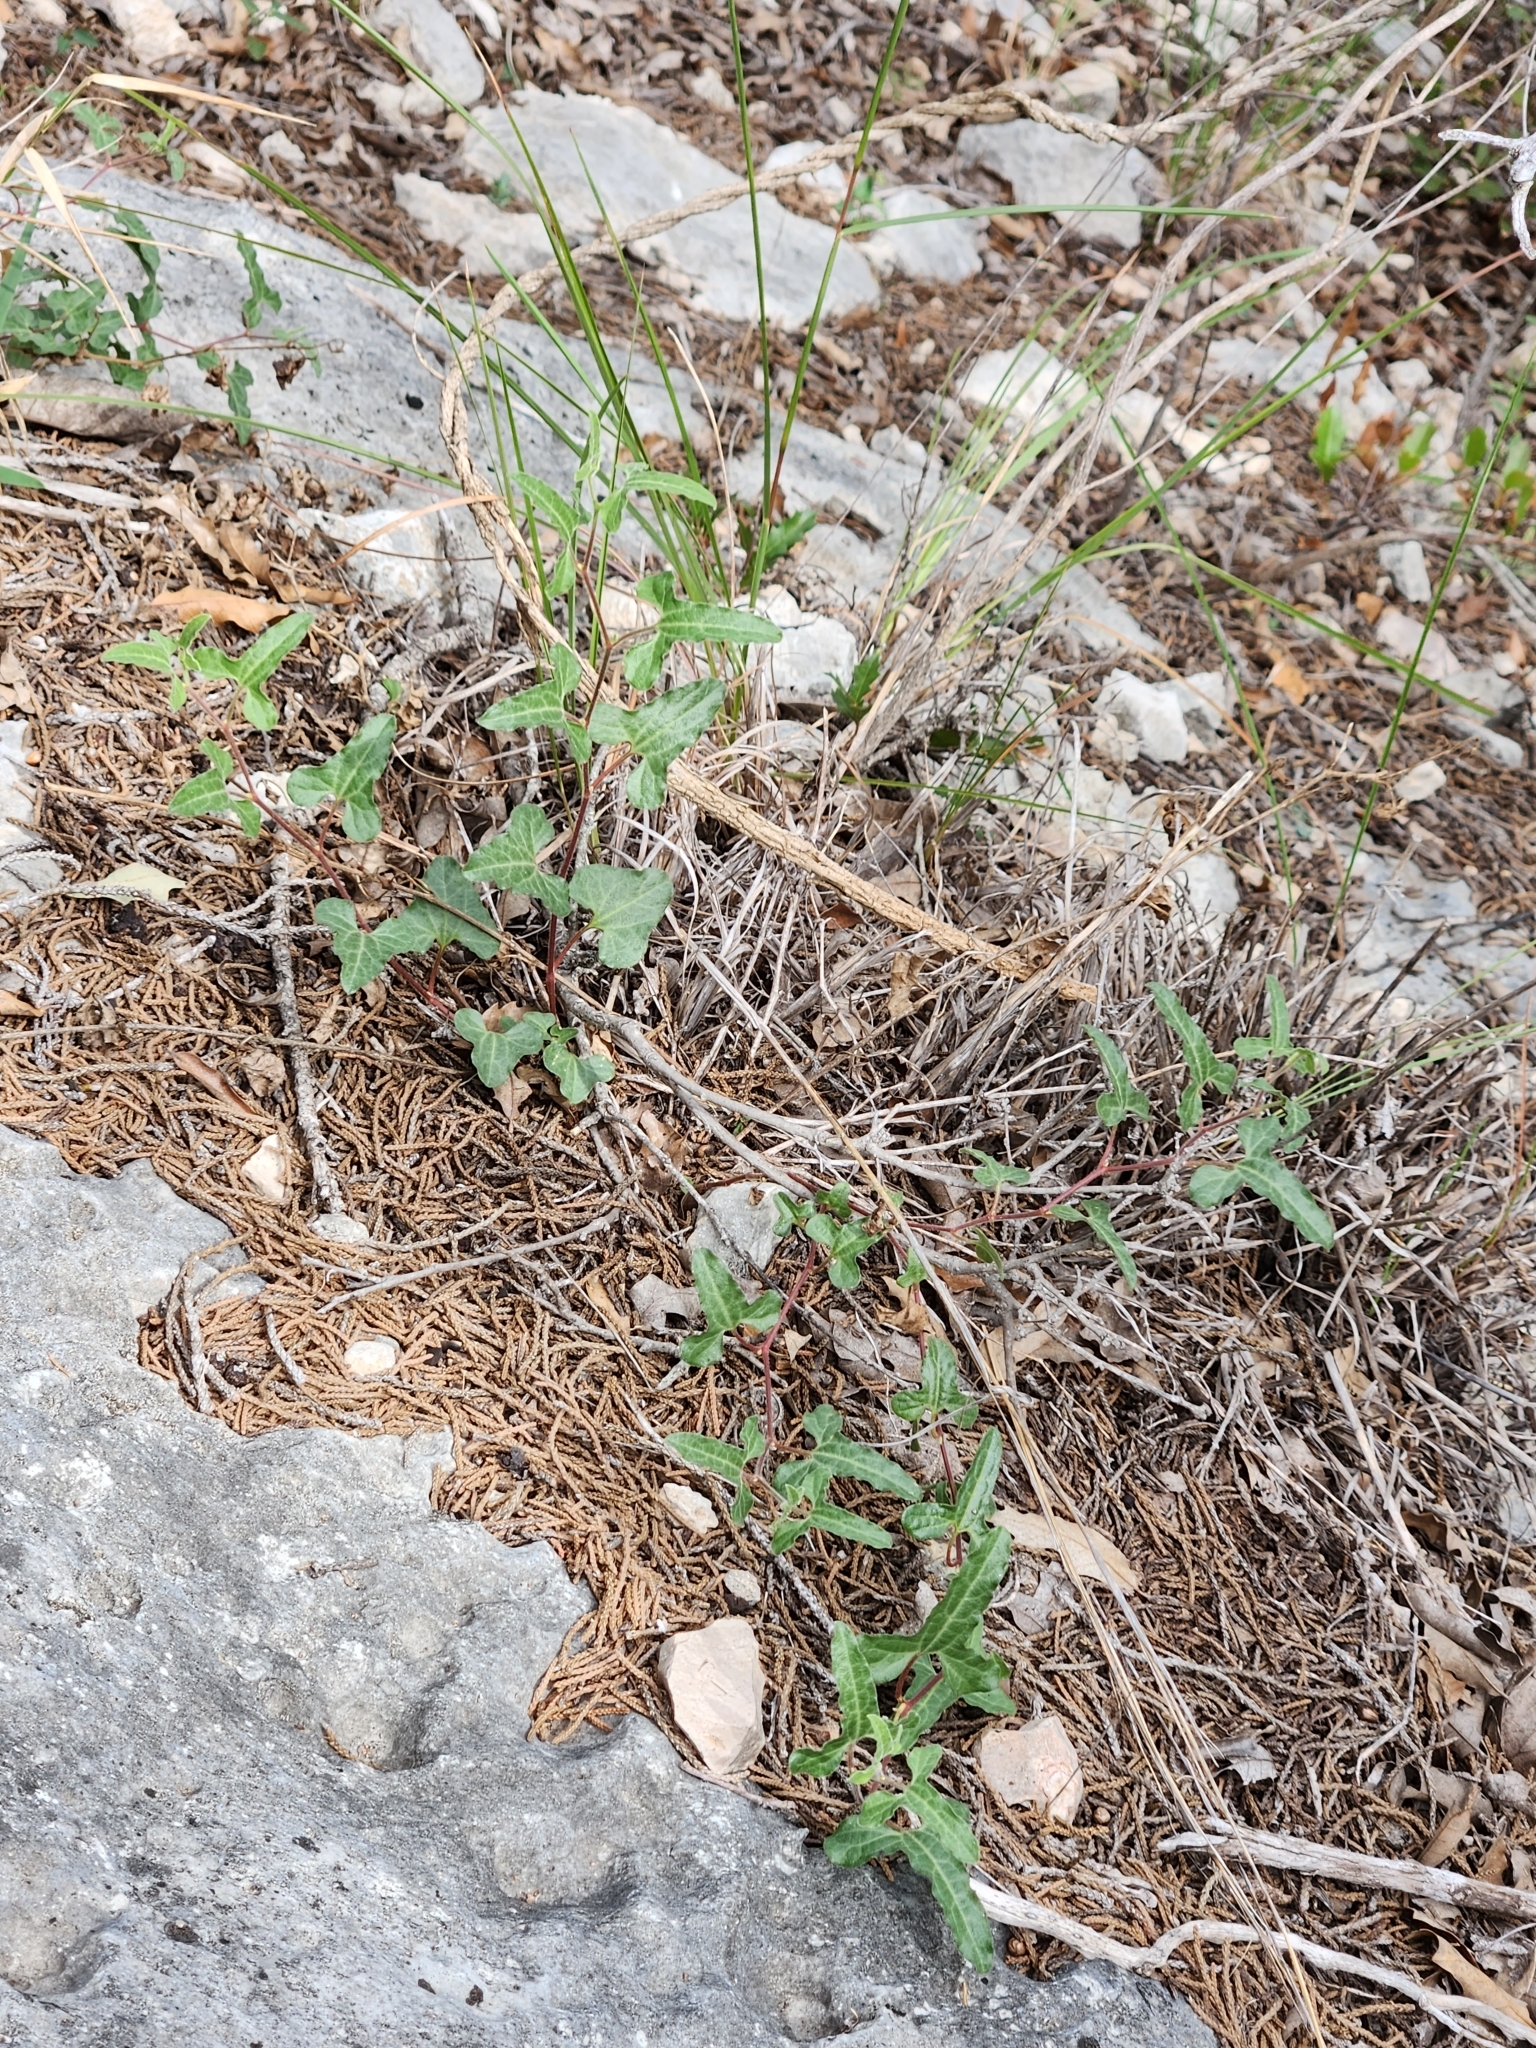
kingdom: Plantae
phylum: Tracheophyta
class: Magnoliopsida
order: Piperales
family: Aristolochiaceae
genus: Aristolochia
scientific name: Aristolochia coryi
